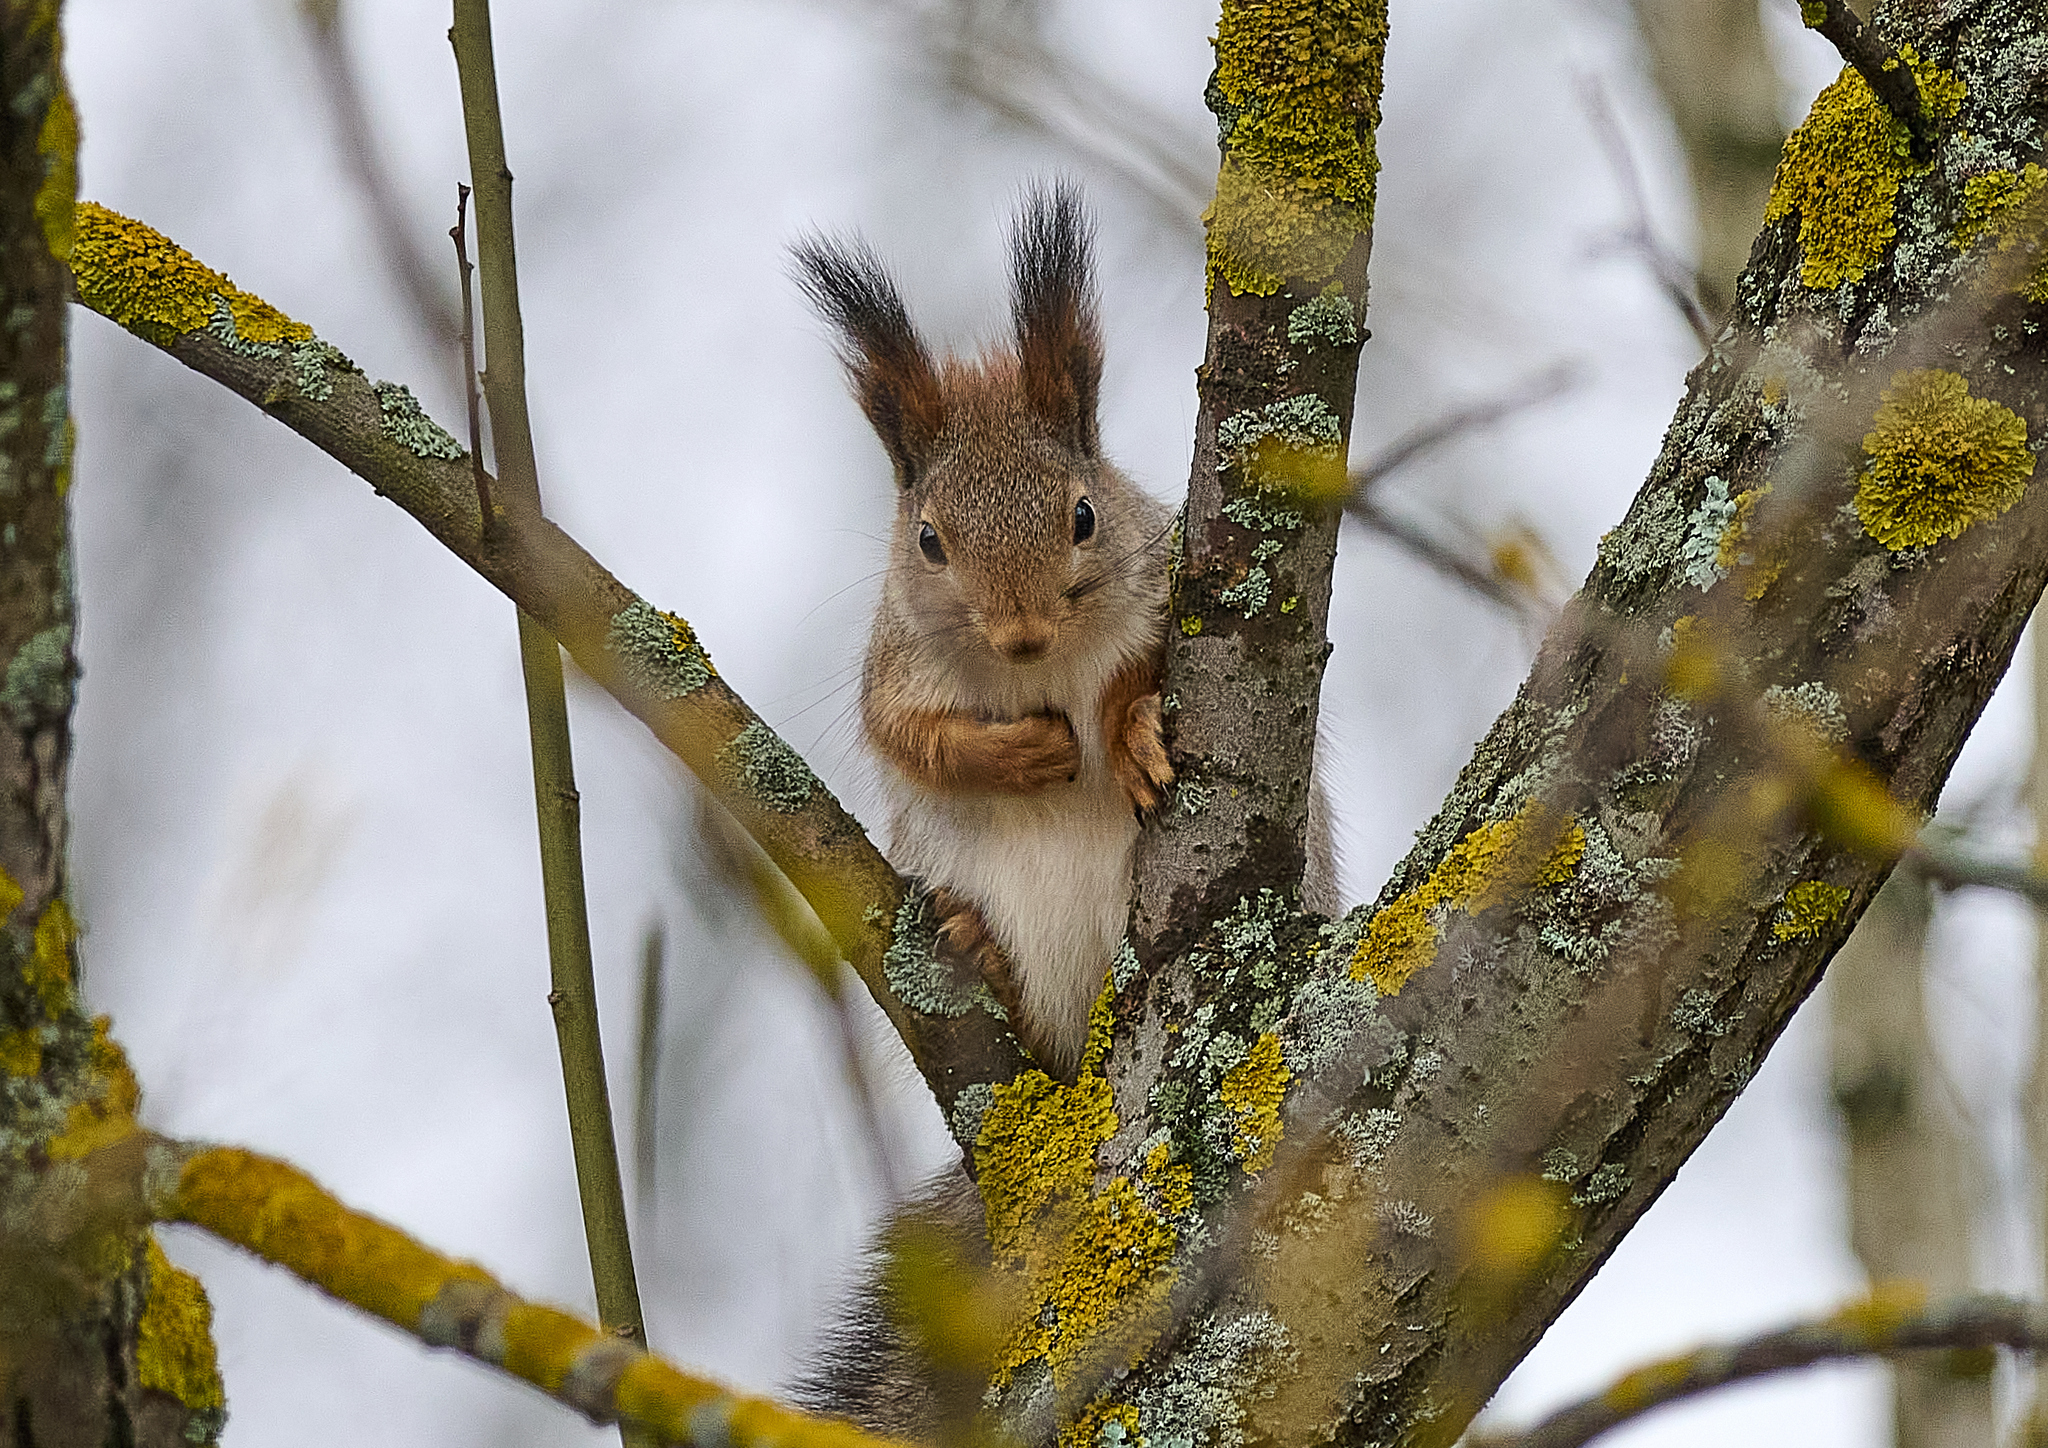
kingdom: Animalia
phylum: Chordata
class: Mammalia
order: Rodentia
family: Sciuridae
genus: Sciurus
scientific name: Sciurus vulgaris
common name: Eurasian red squirrel
